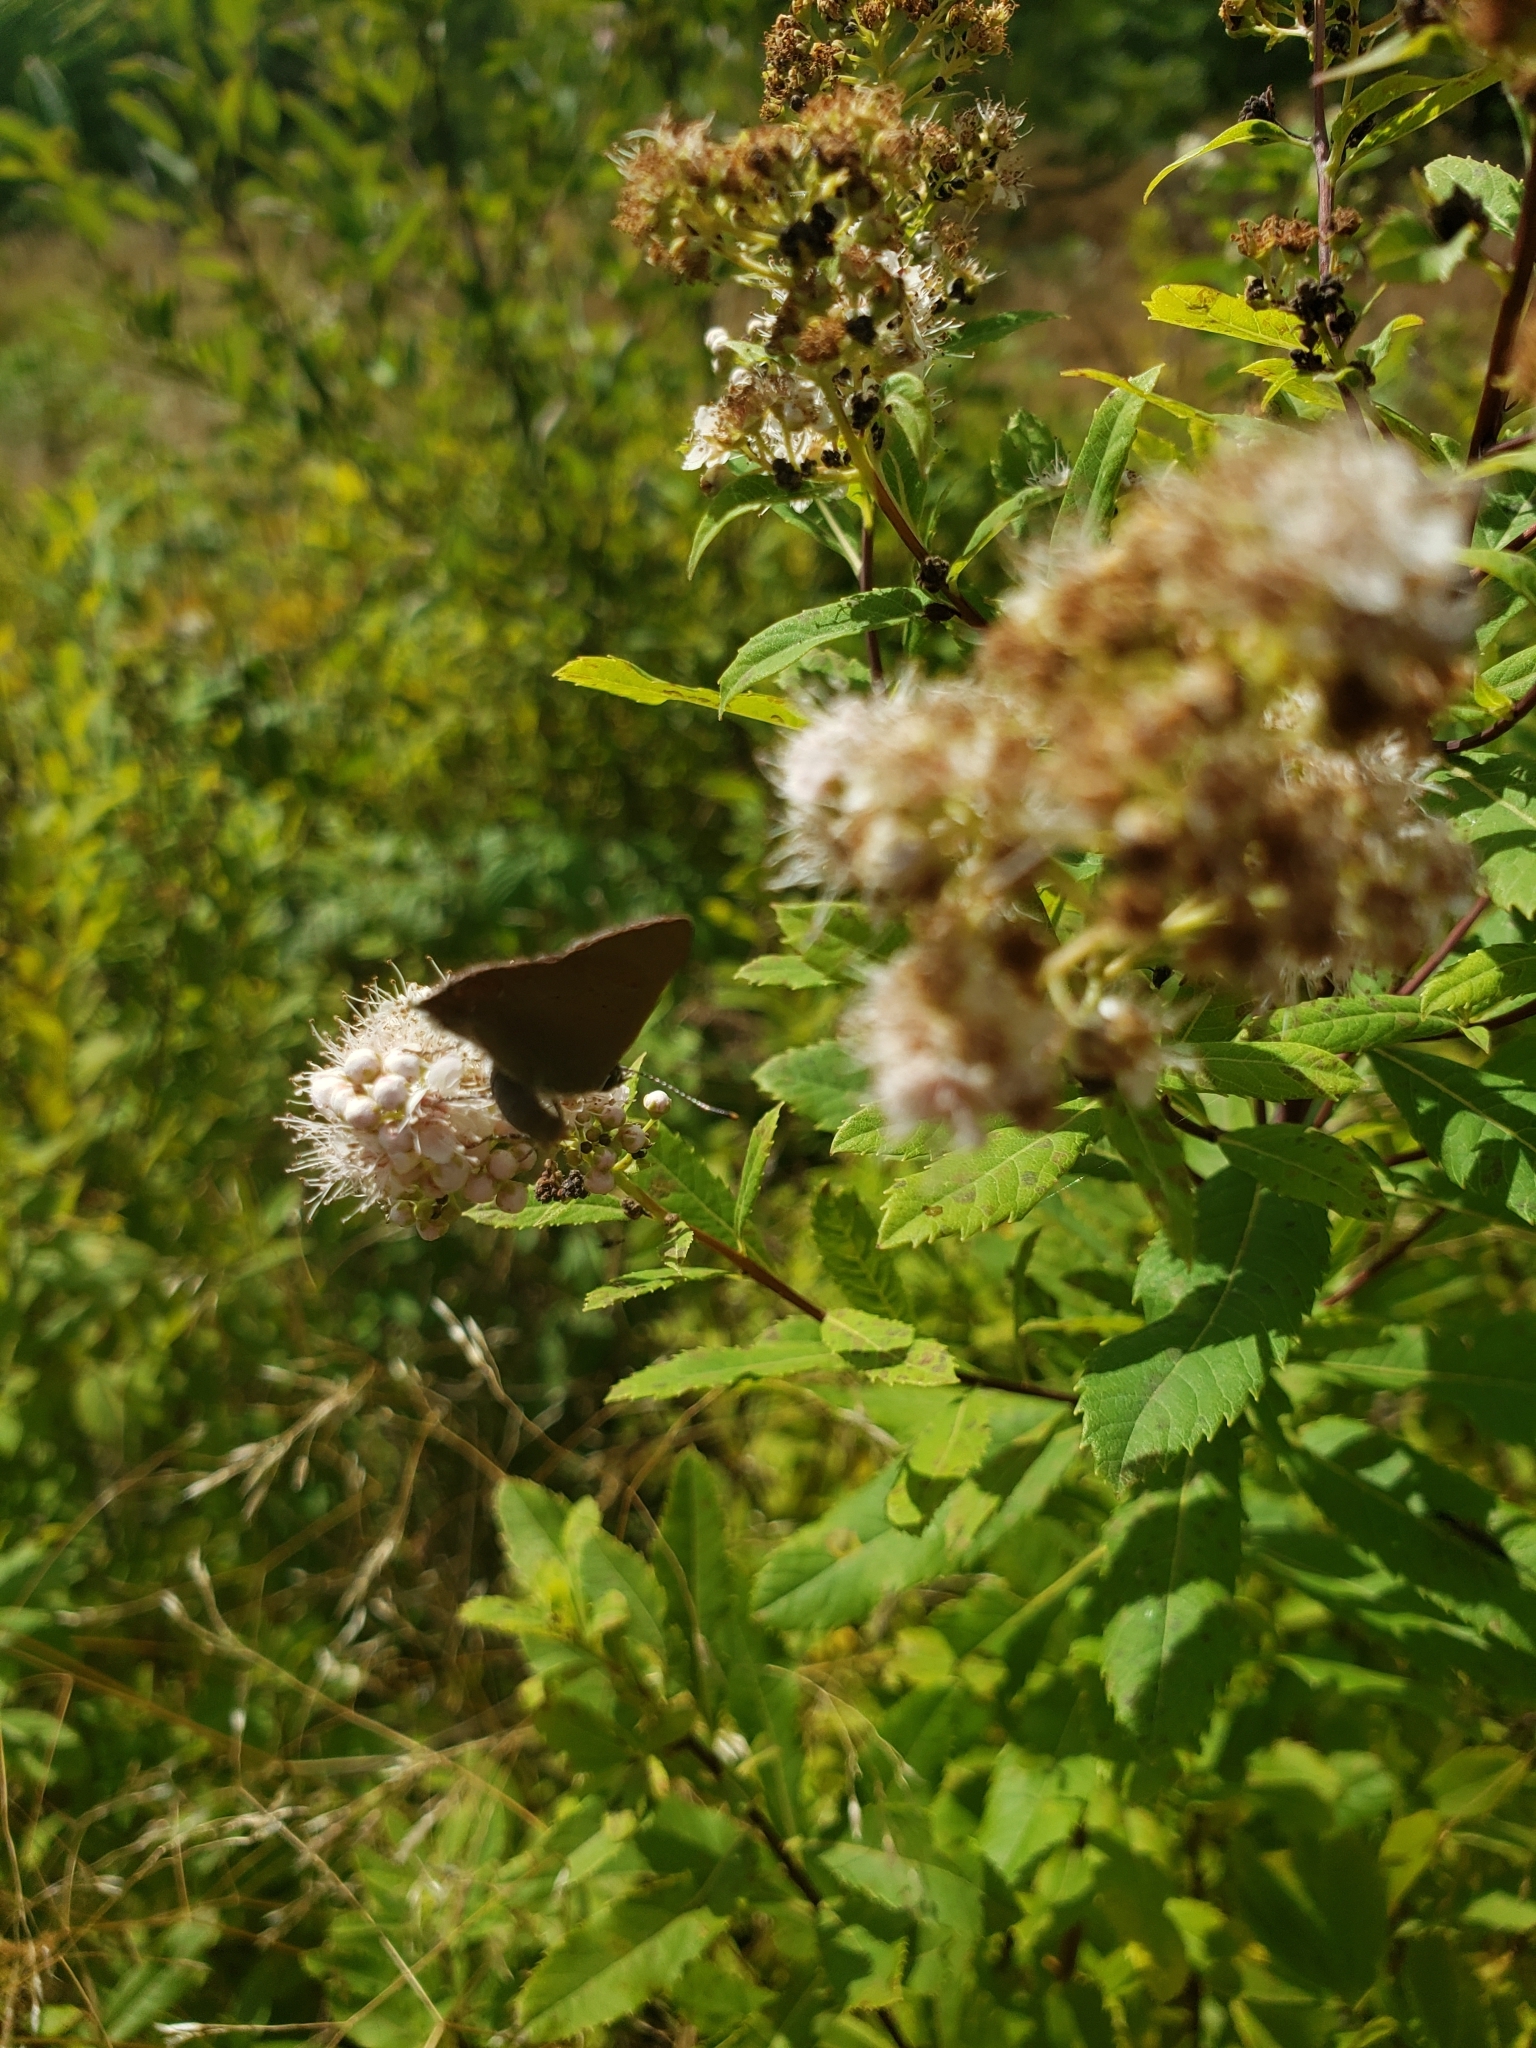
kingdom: Animalia
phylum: Arthropoda
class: Insecta
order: Lepidoptera
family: Lycaenidae
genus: Harkenclenus
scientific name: Harkenclenus titus
